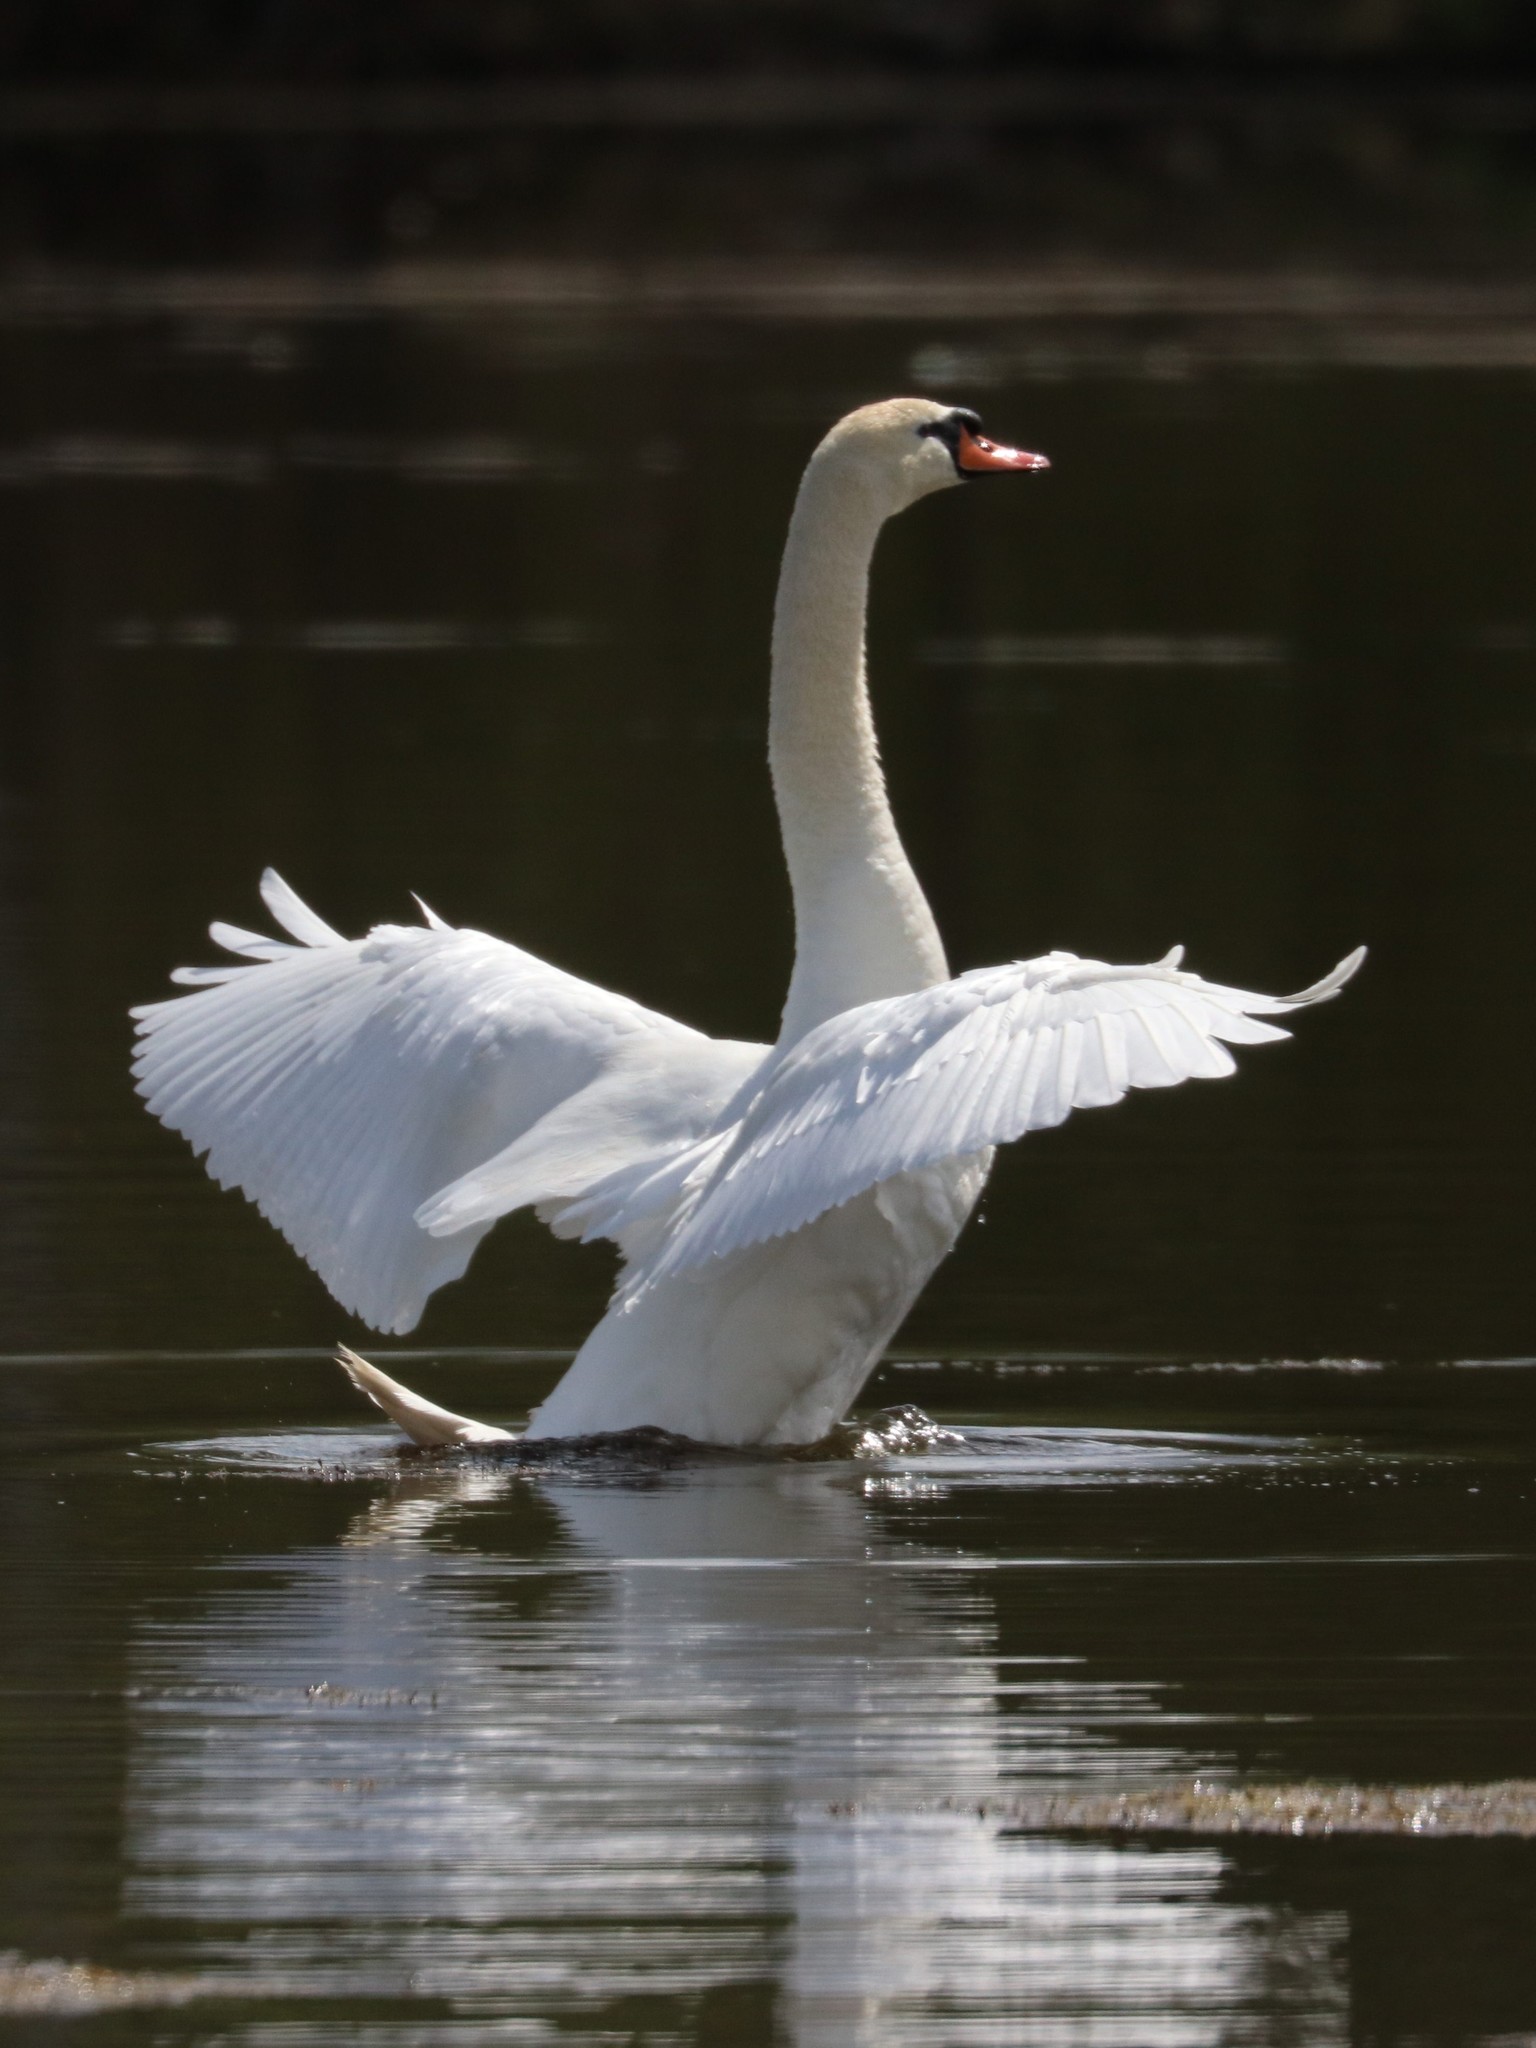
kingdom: Animalia
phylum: Chordata
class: Aves
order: Anseriformes
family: Anatidae
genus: Cygnus
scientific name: Cygnus olor
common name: Mute swan
